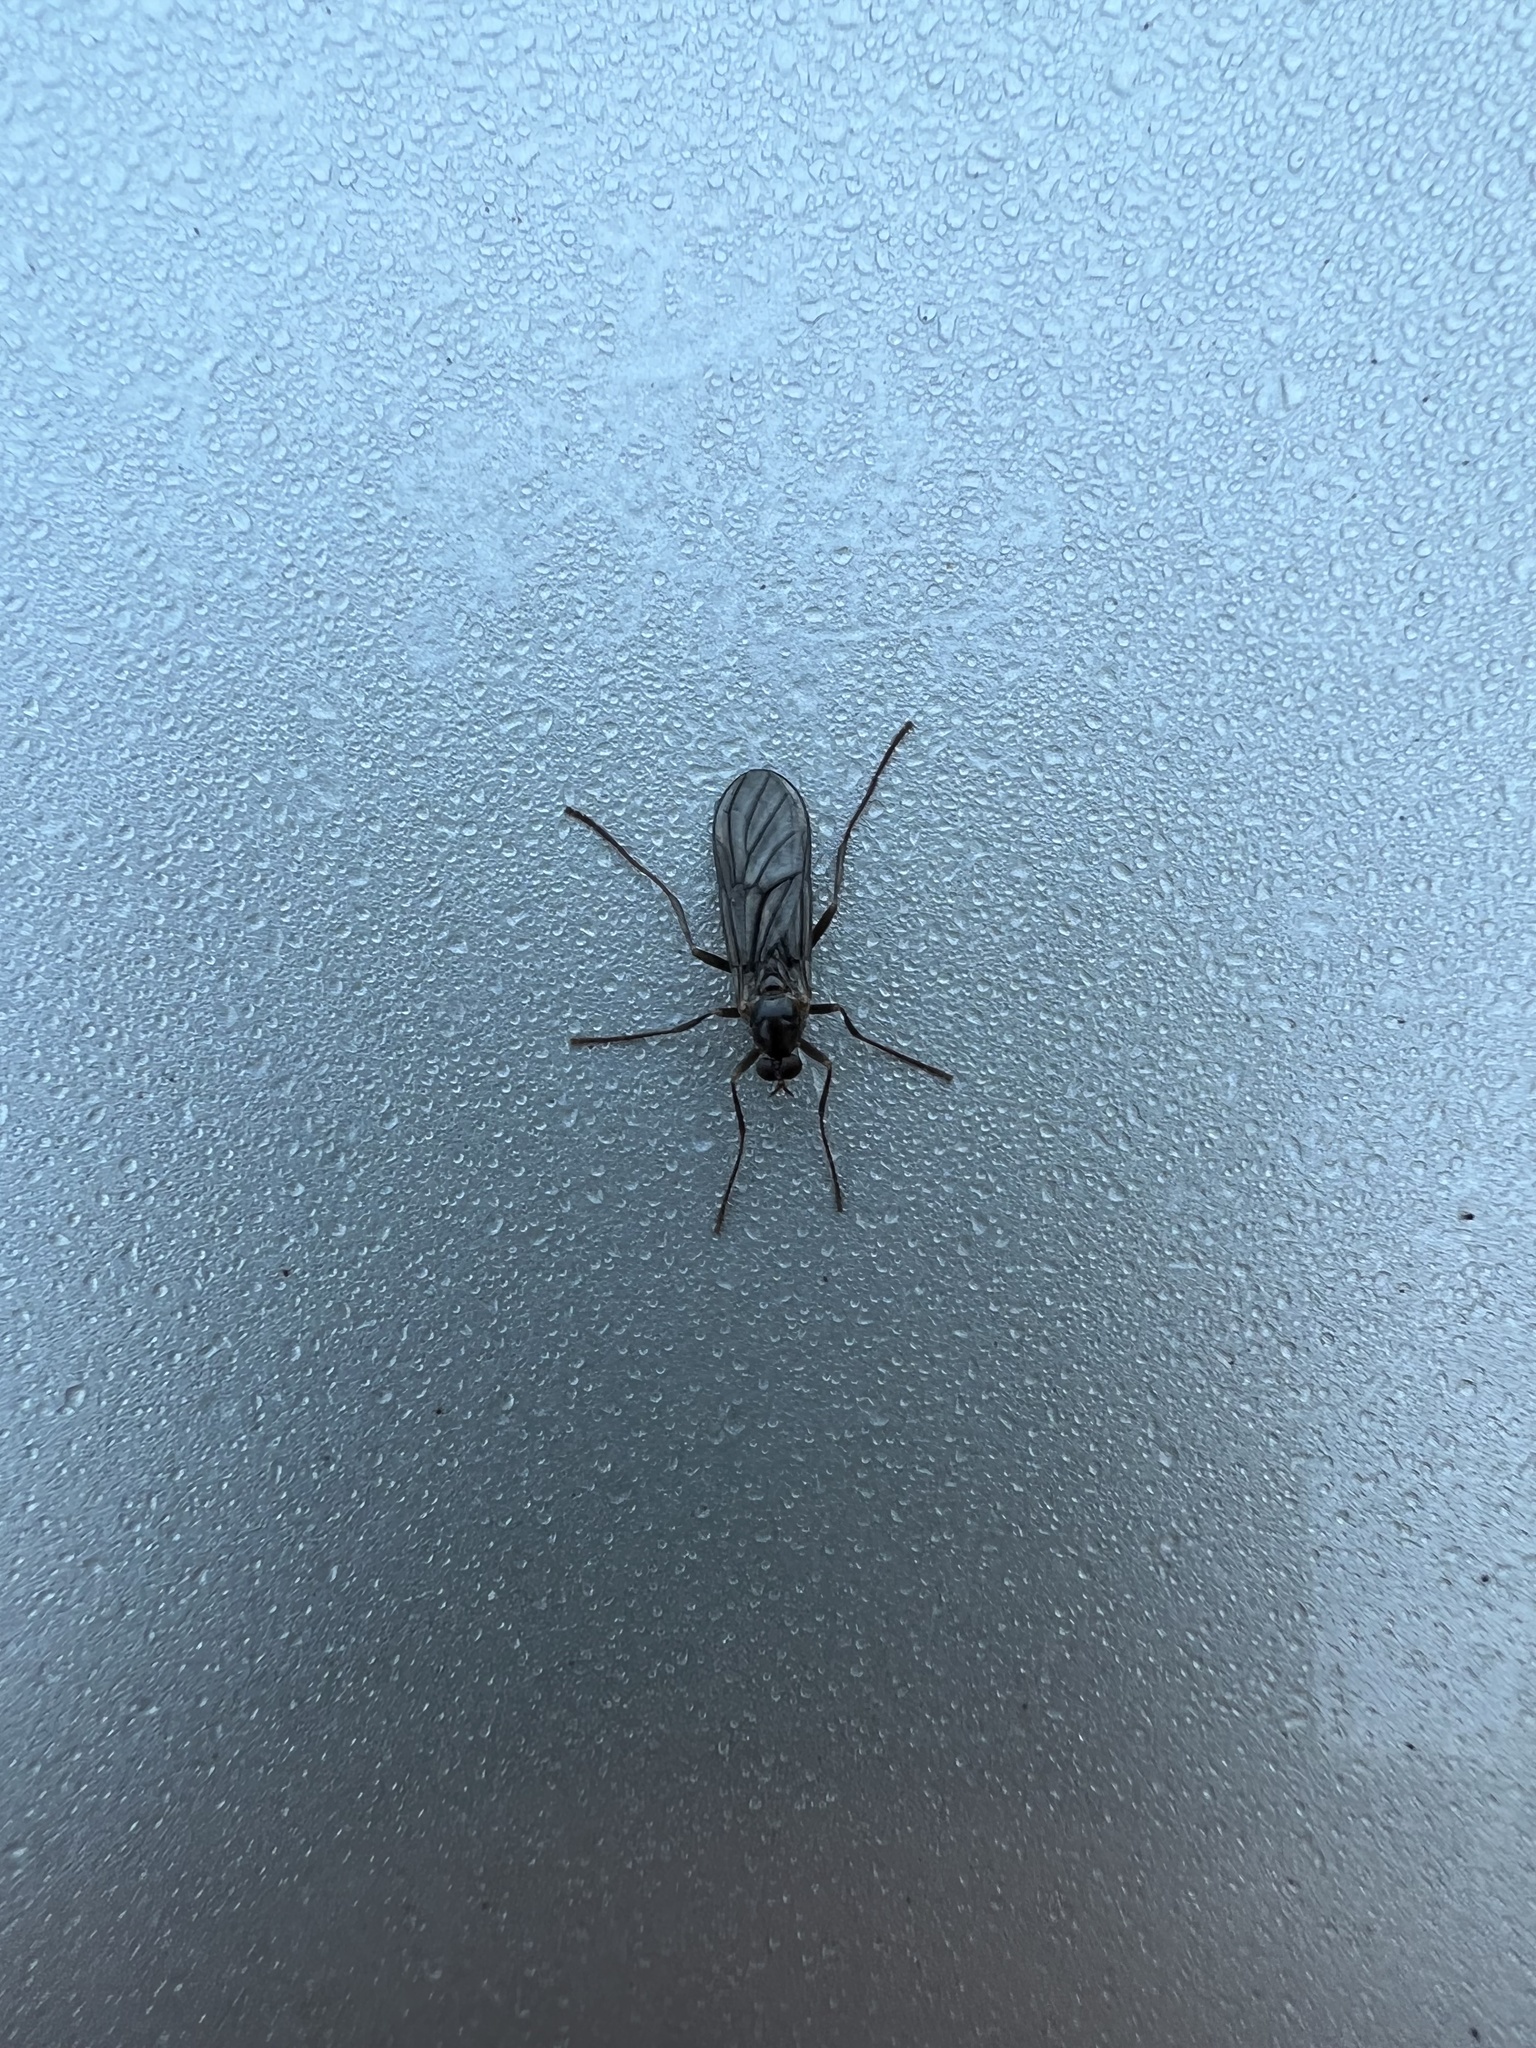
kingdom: Animalia
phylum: Arthropoda
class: Insecta
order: Diptera
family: Stratiomyidae
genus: Boreoides
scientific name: Boreoides tasmaniensis
